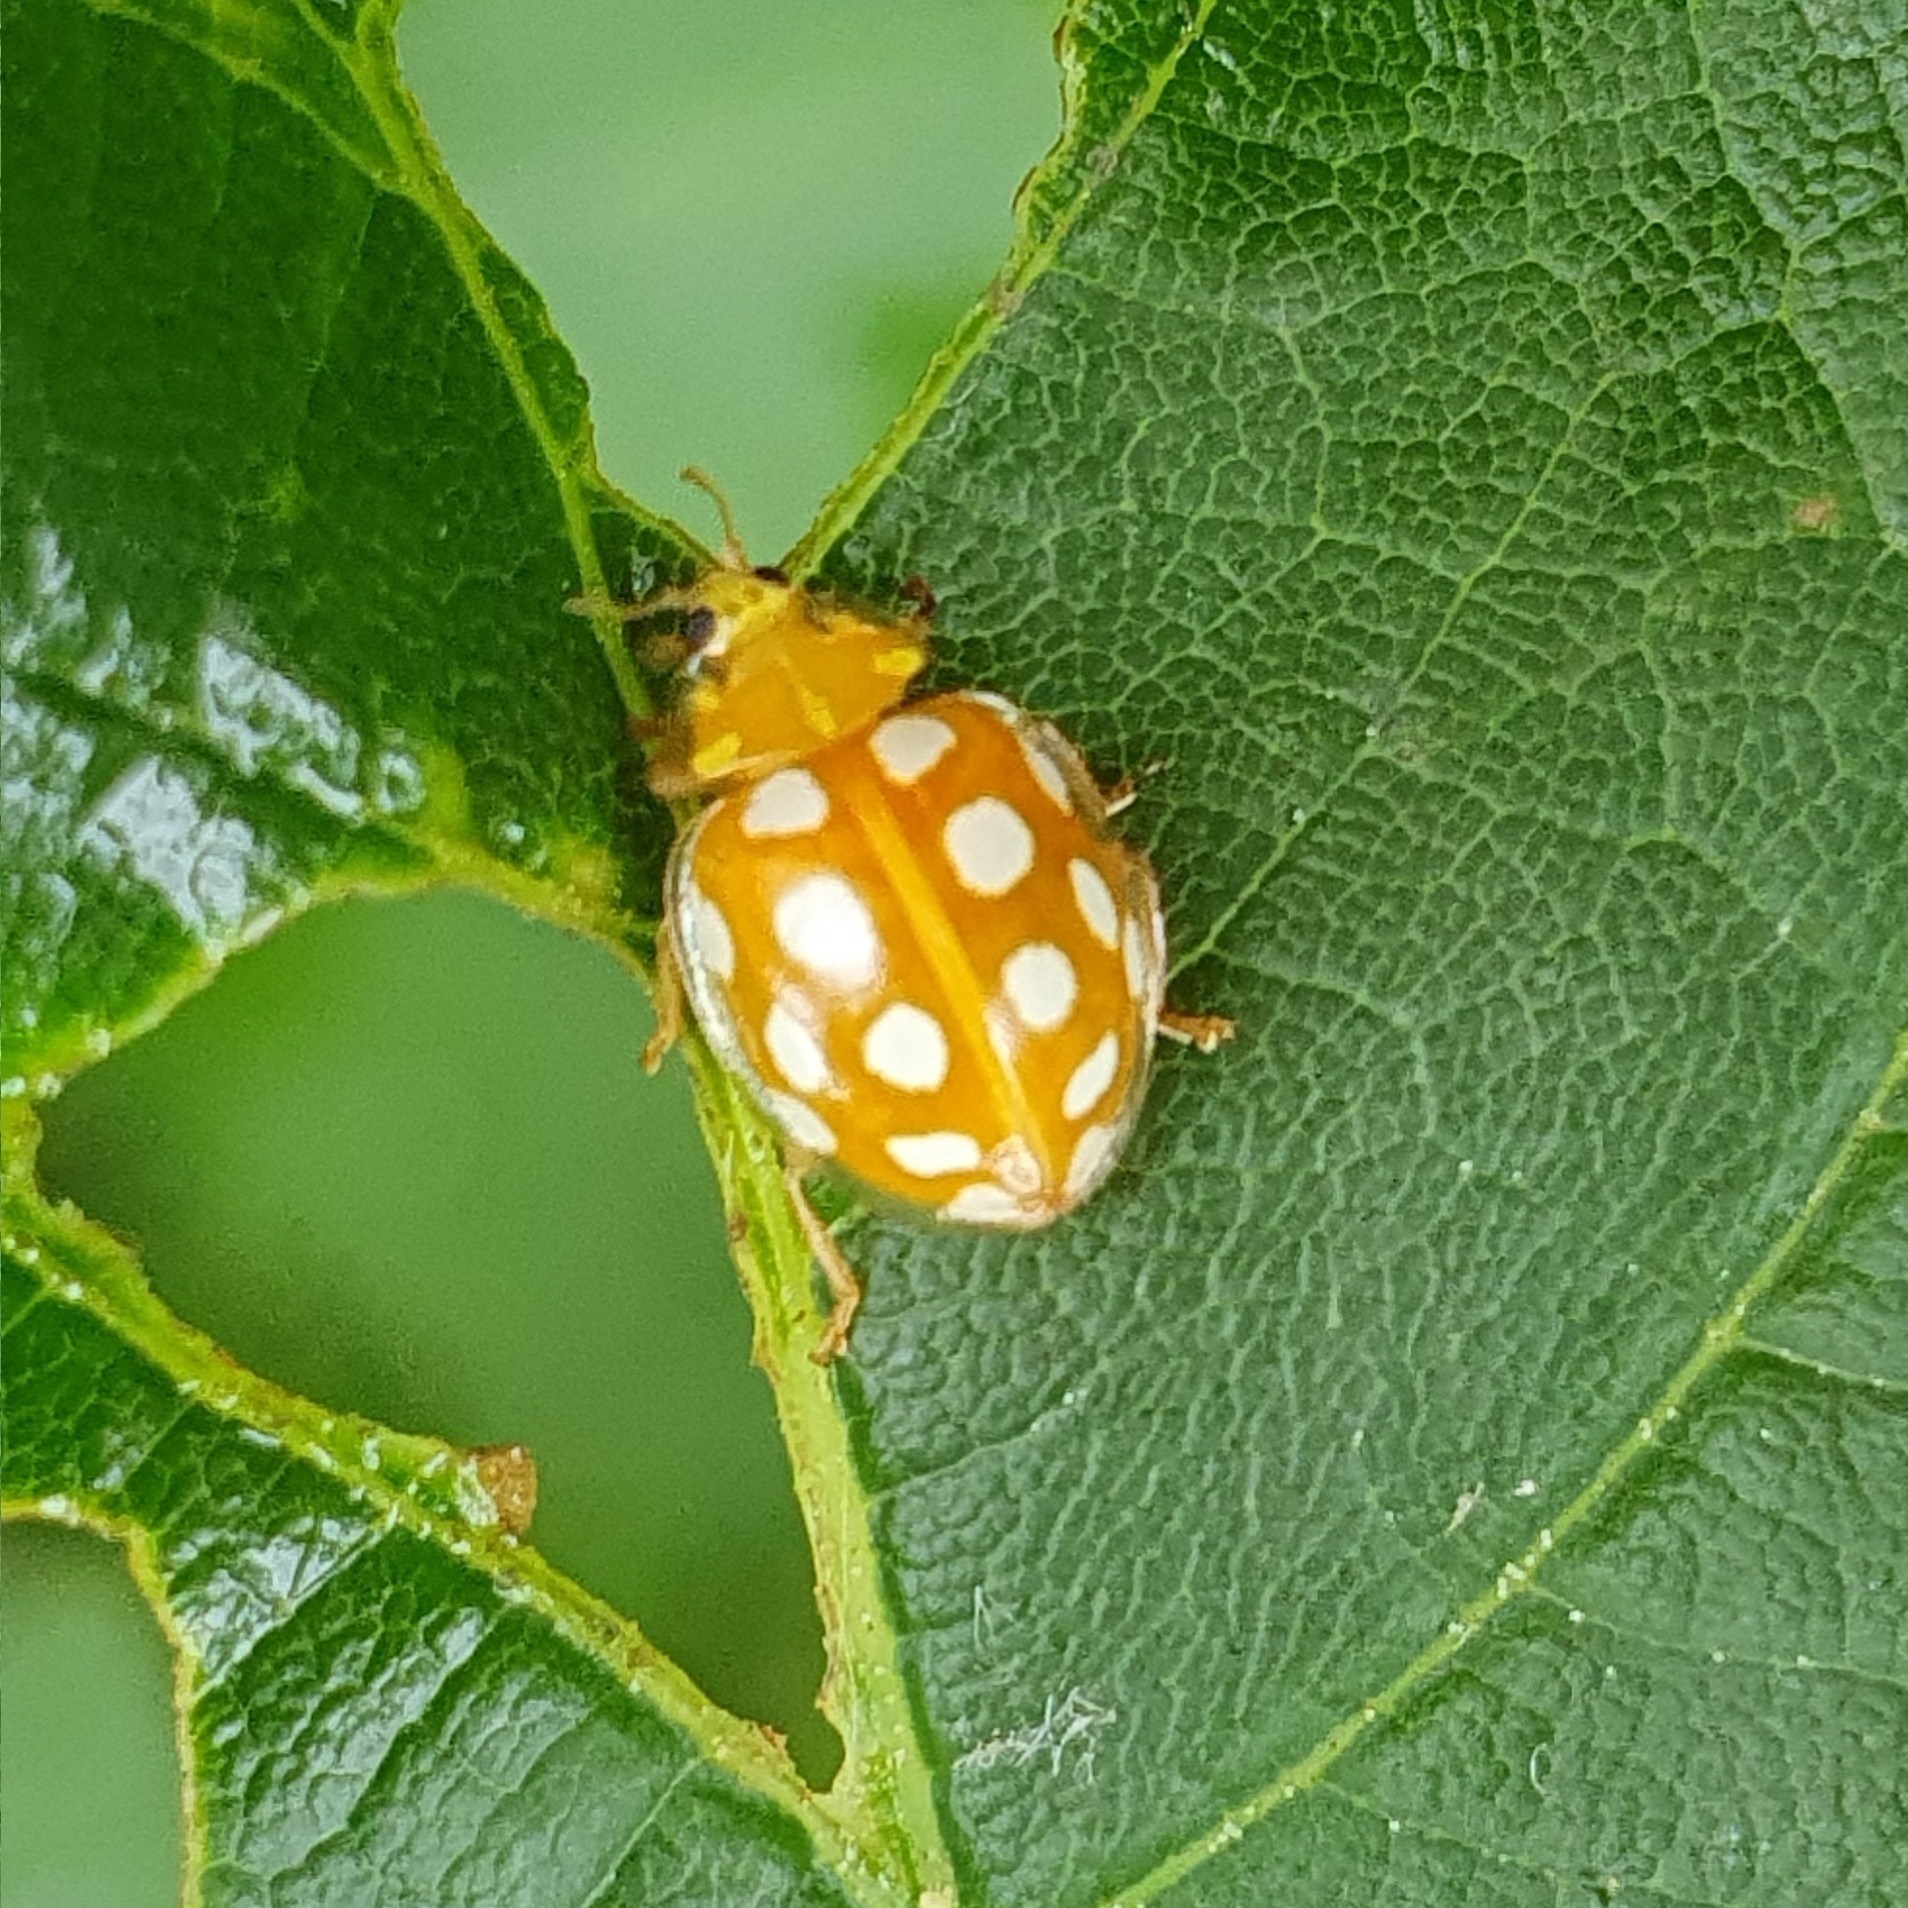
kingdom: Animalia
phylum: Arthropoda
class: Insecta
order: Coleoptera
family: Coccinellidae
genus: Halyzia
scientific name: Halyzia sedecimguttata
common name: Orange ladybird
